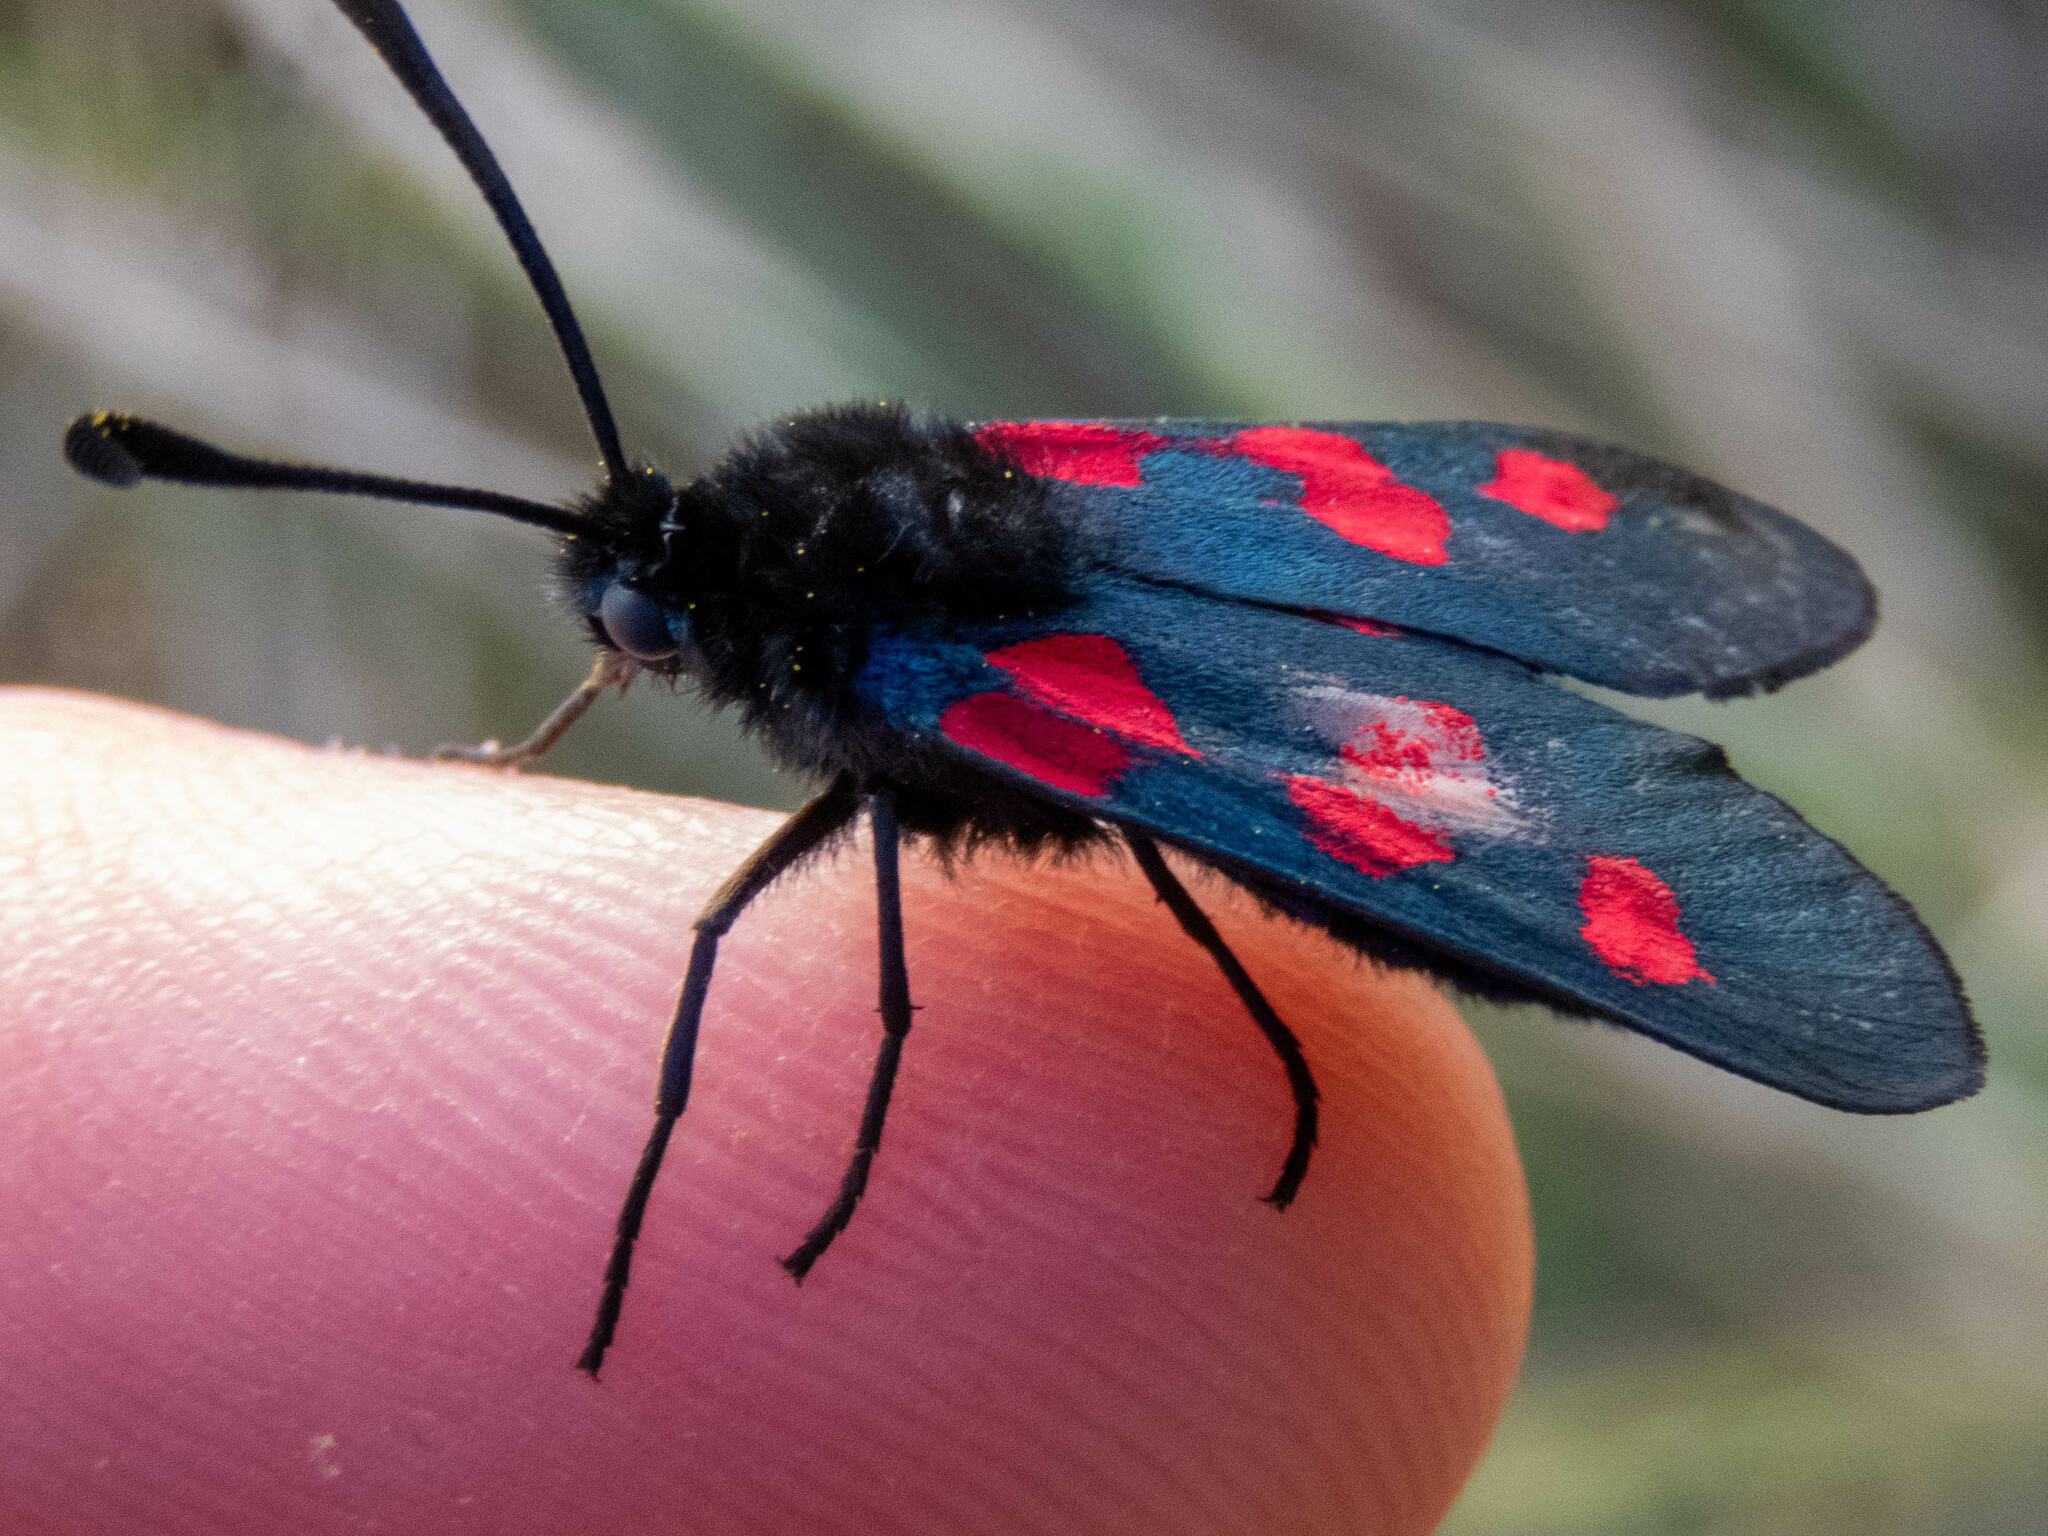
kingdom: Animalia
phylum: Arthropoda
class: Insecta
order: Lepidoptera
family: Zygaenidae
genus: Zygaena
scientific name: Zygaena trifolii
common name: Five-spot burnet
